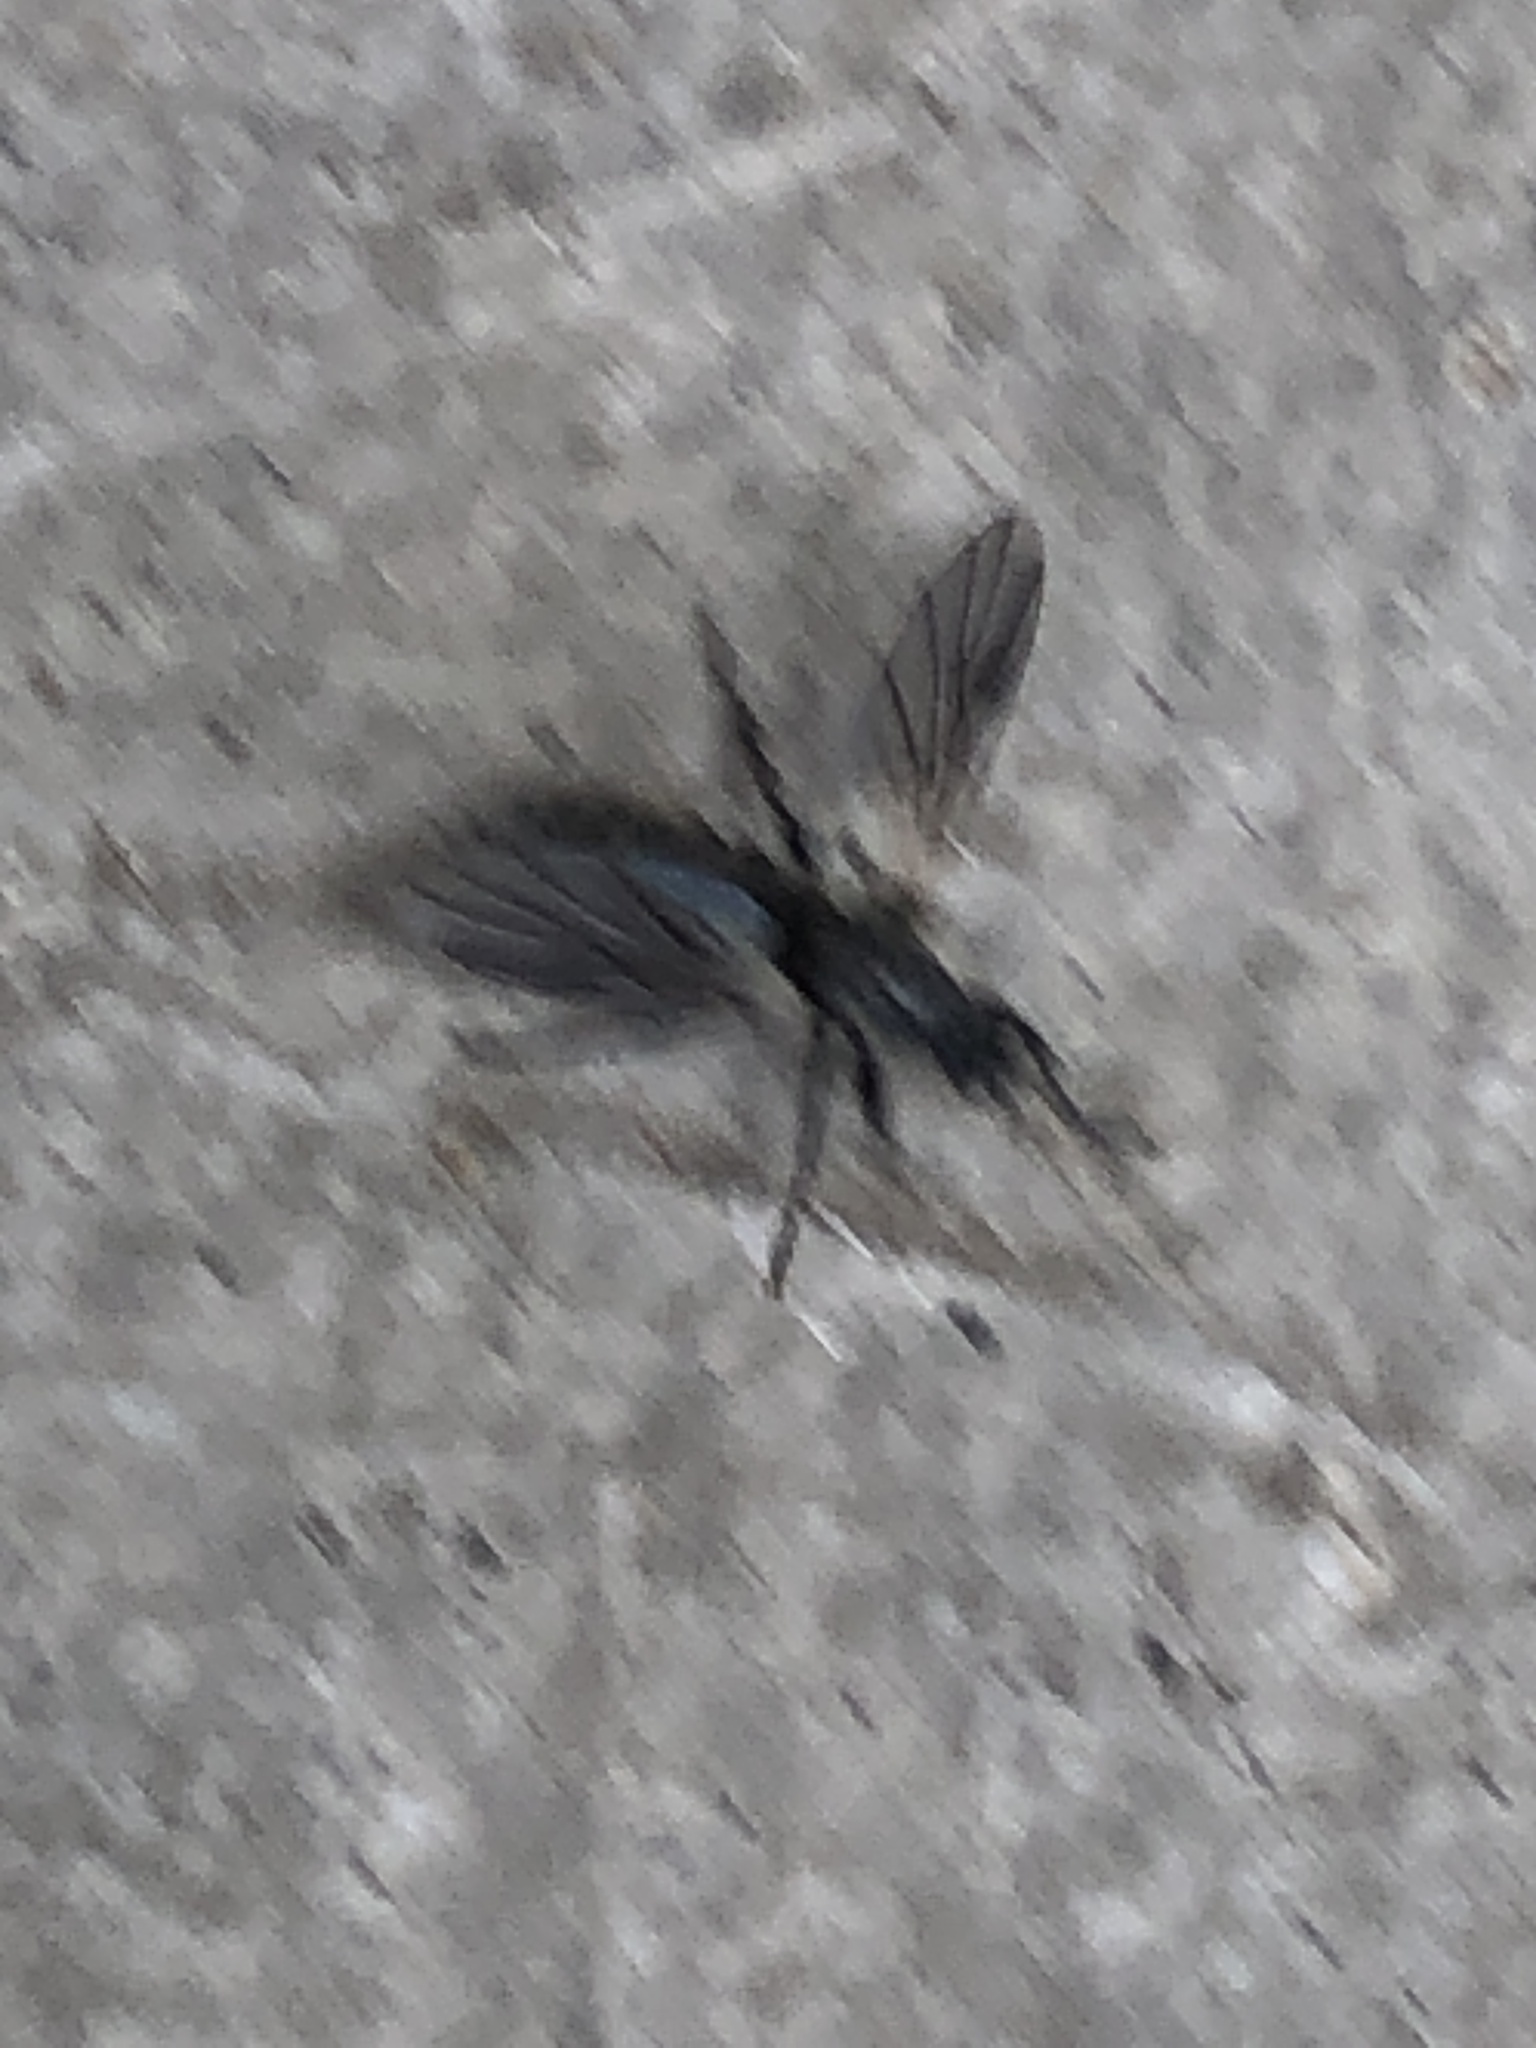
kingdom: Animalia
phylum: Arthropoda
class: Insecta
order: Diptera
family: Bibionidae
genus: Bibio
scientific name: Bibio
